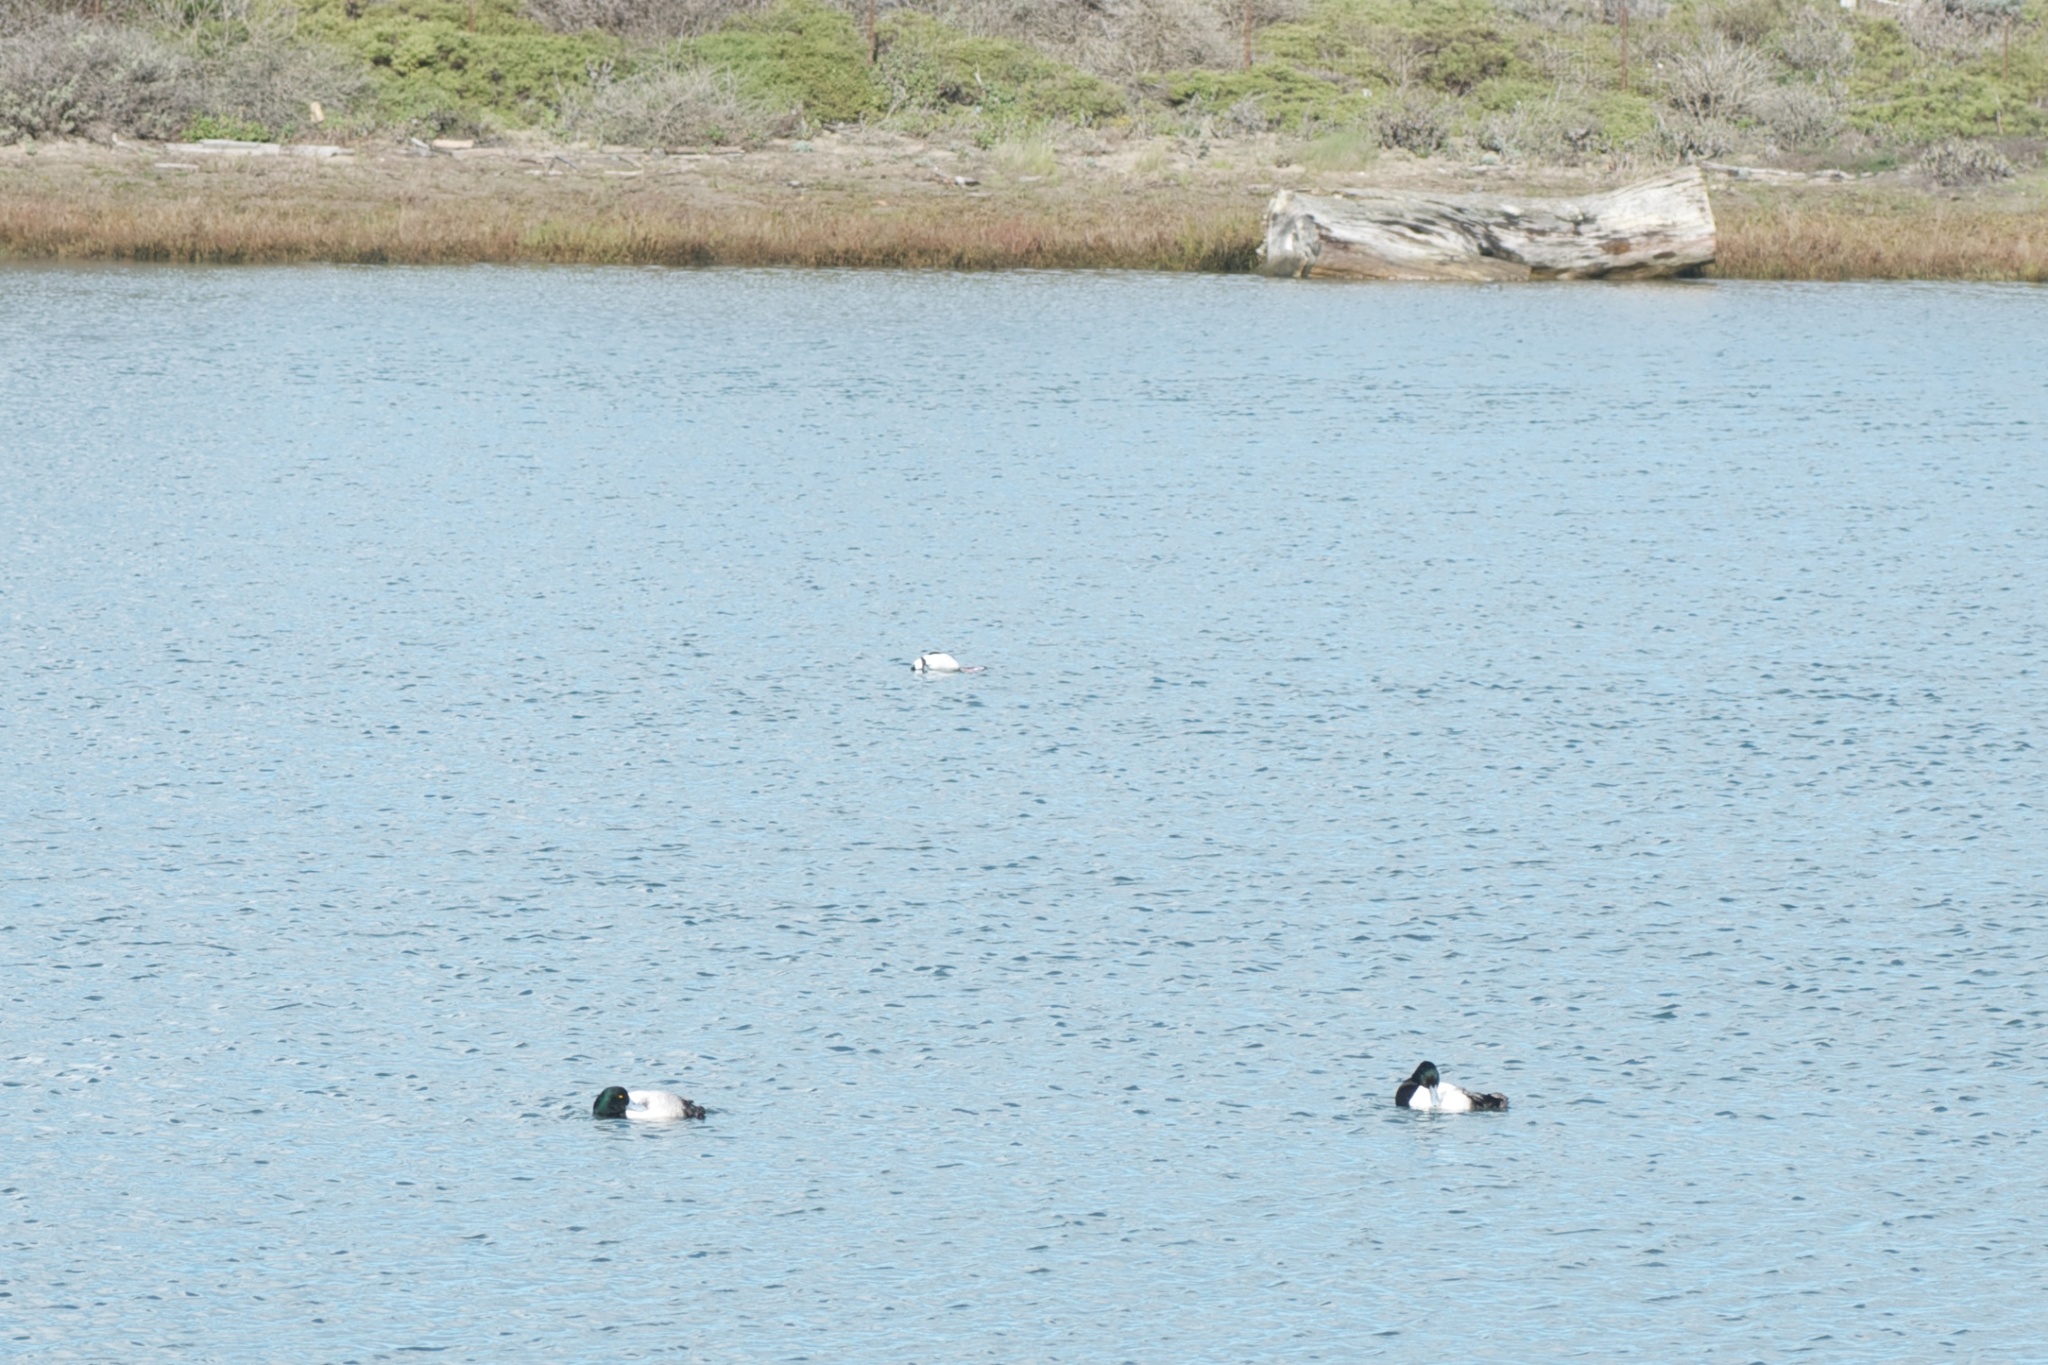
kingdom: Animalia
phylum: Chordata
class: Aves
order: Anseriformes
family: Anatidae
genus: Aythya
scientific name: Aythya marila
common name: Greater scaup
